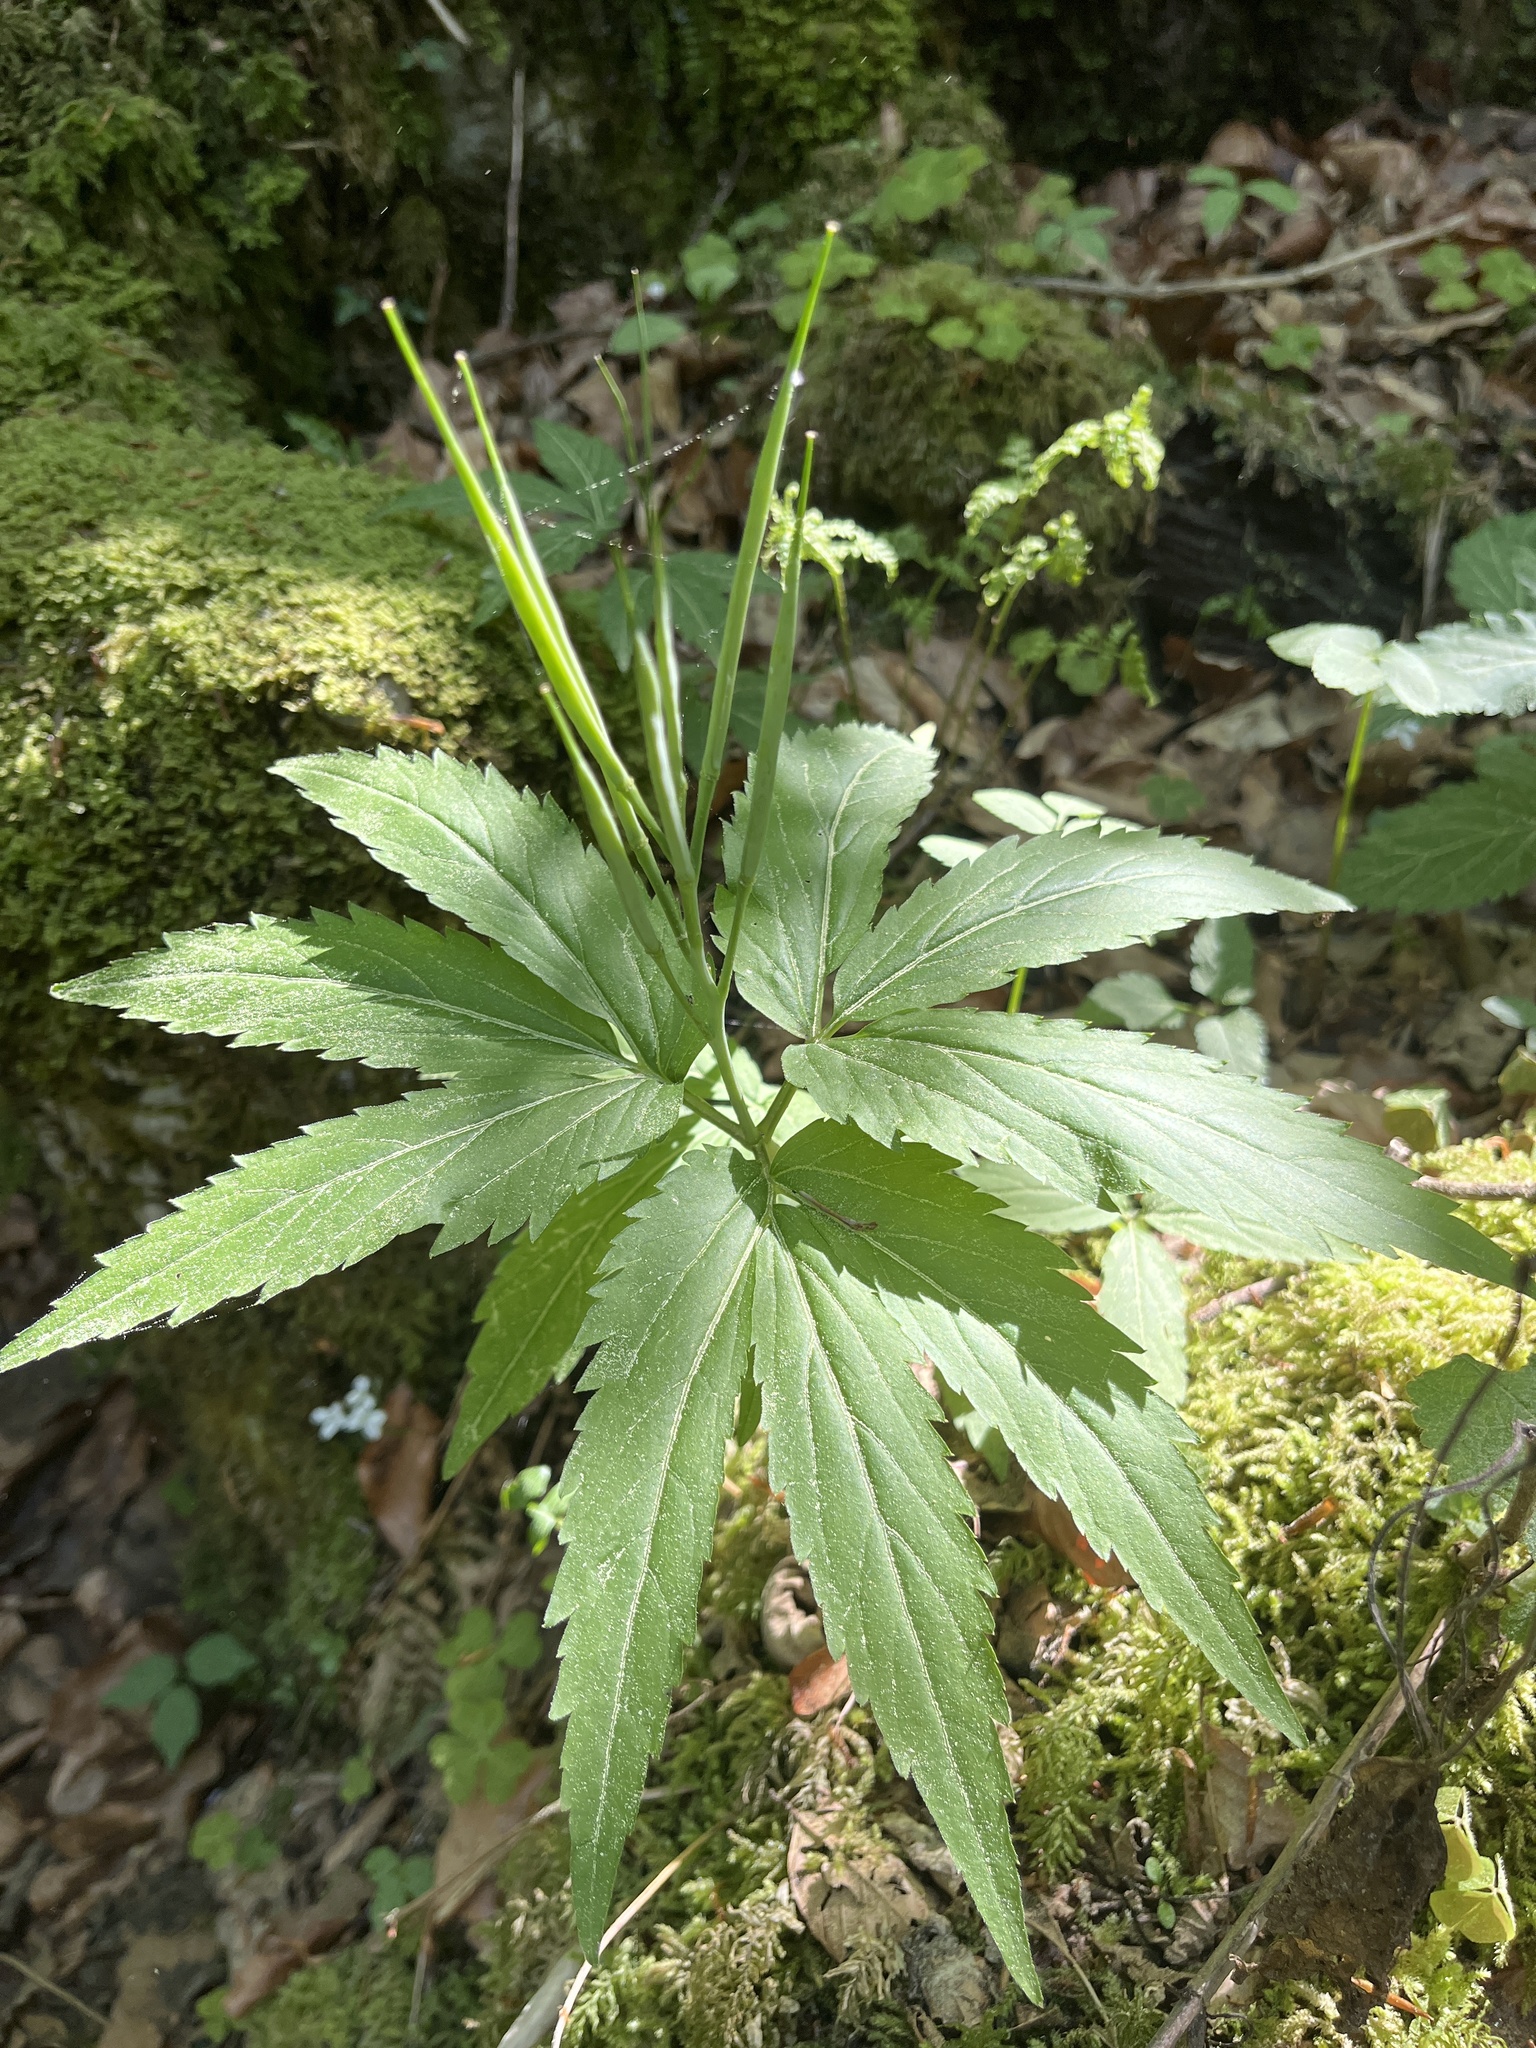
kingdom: Plantae
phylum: Tracheophyta
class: Magnoliopsida
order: Brassicales
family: Brassicaceae
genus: Cardamine
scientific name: Cardamine enneaphyllos
